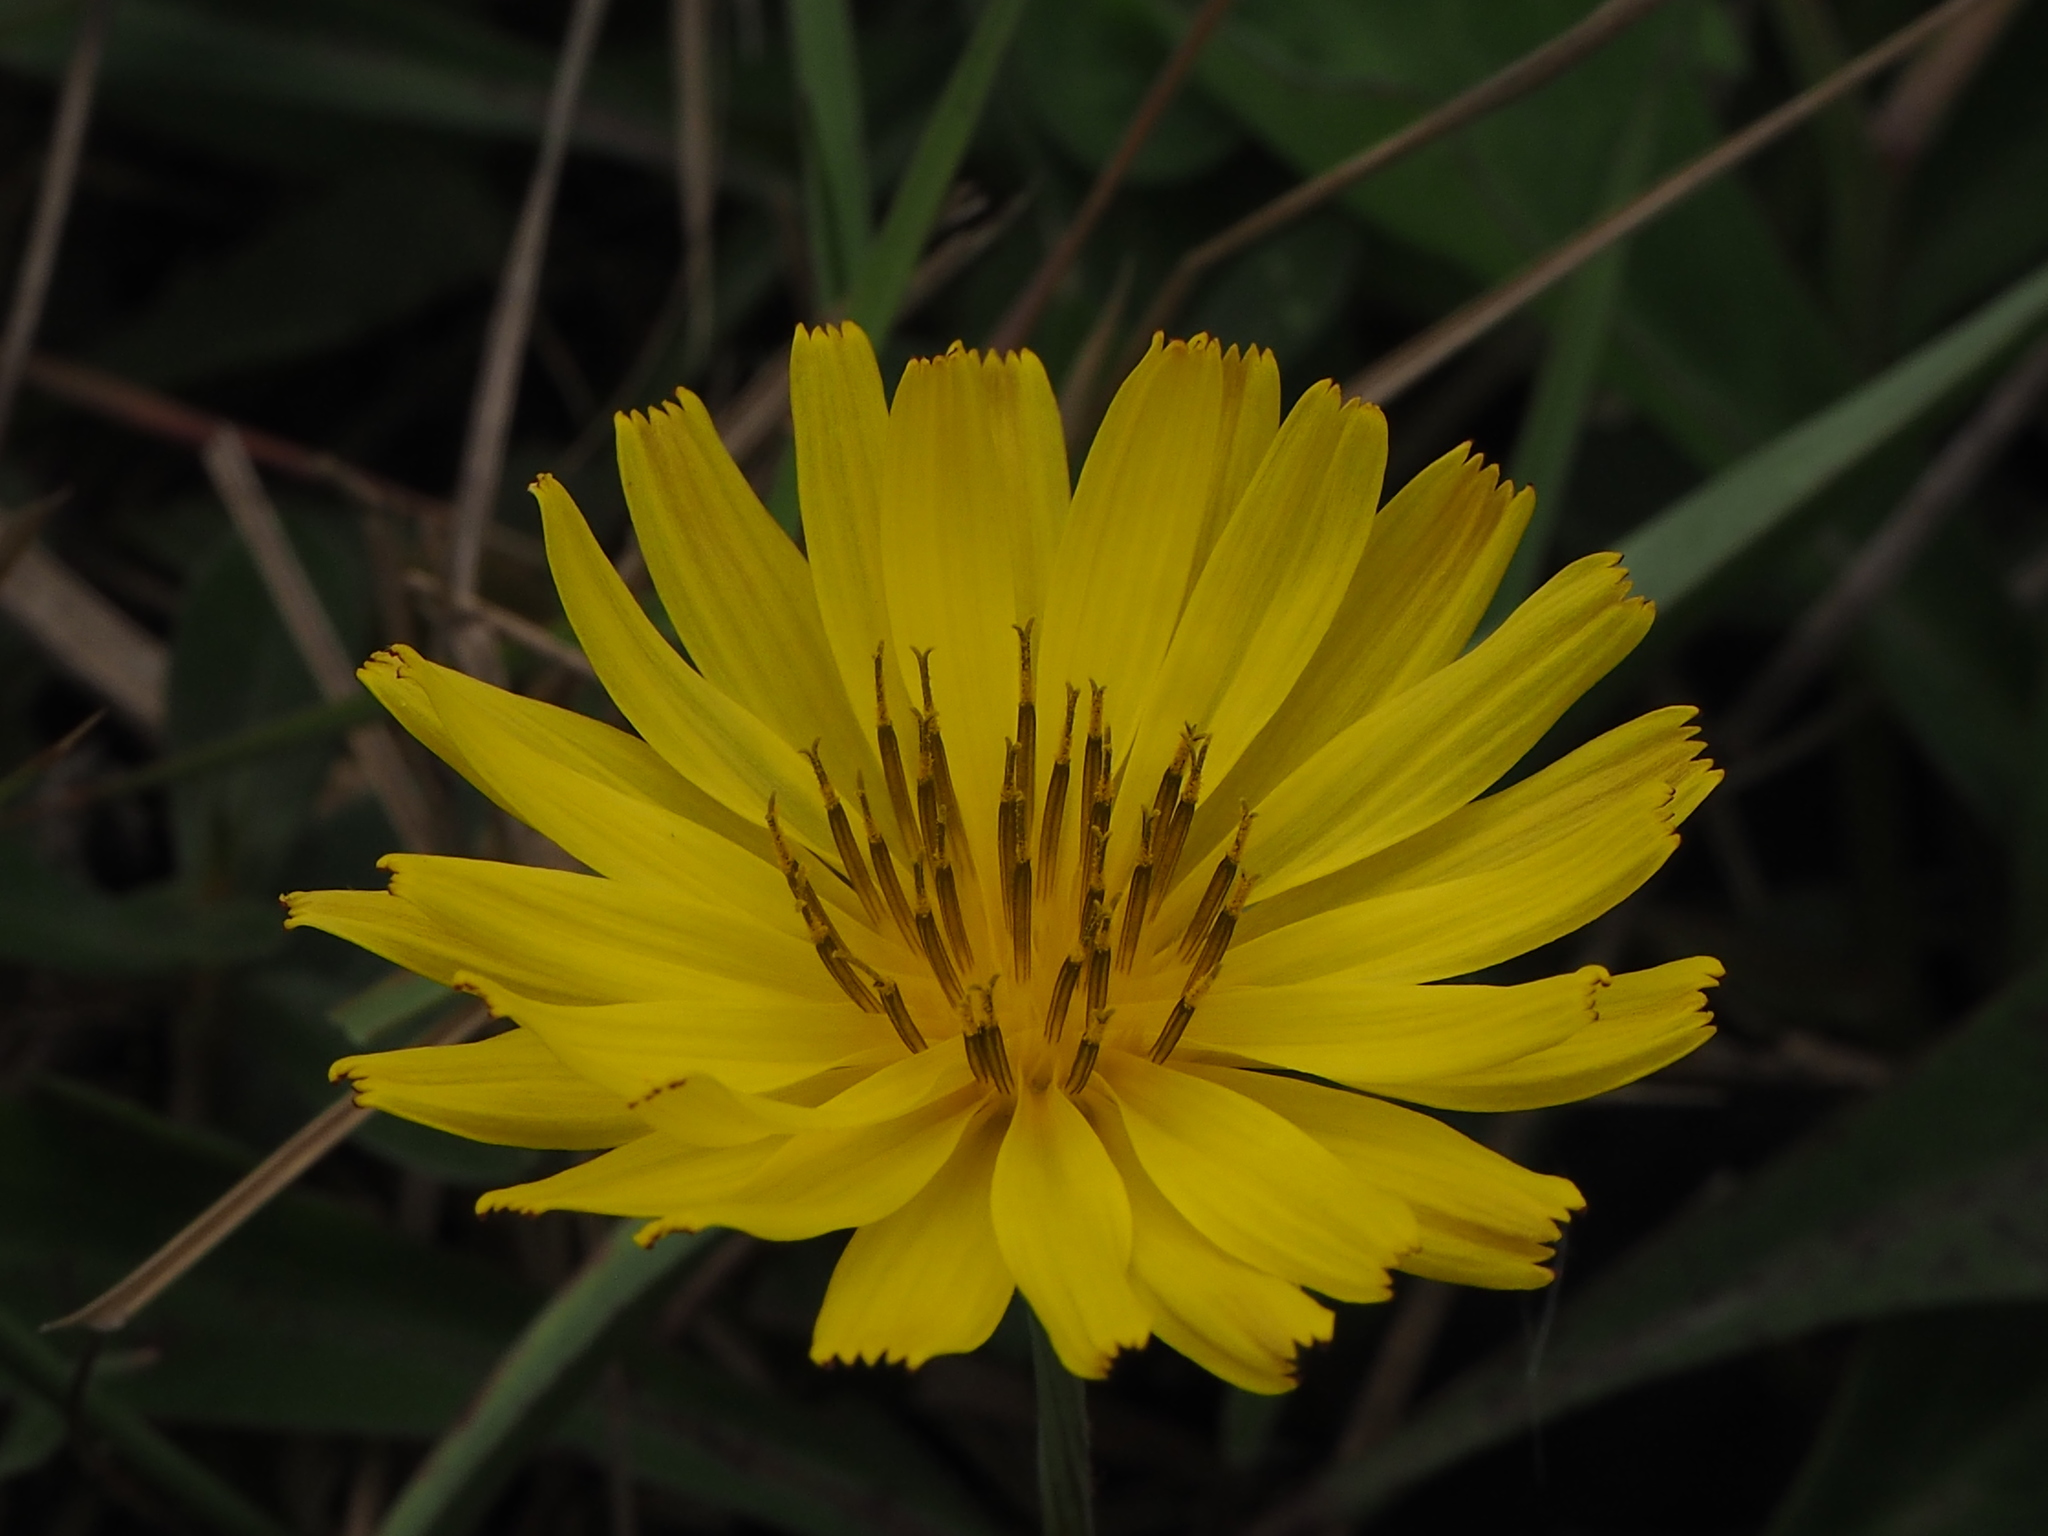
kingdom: Plantae
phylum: Tracheophyta
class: Magnoliopsida
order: Asterales
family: Asteraceae
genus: Ixeris
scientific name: Ixeris japonica
